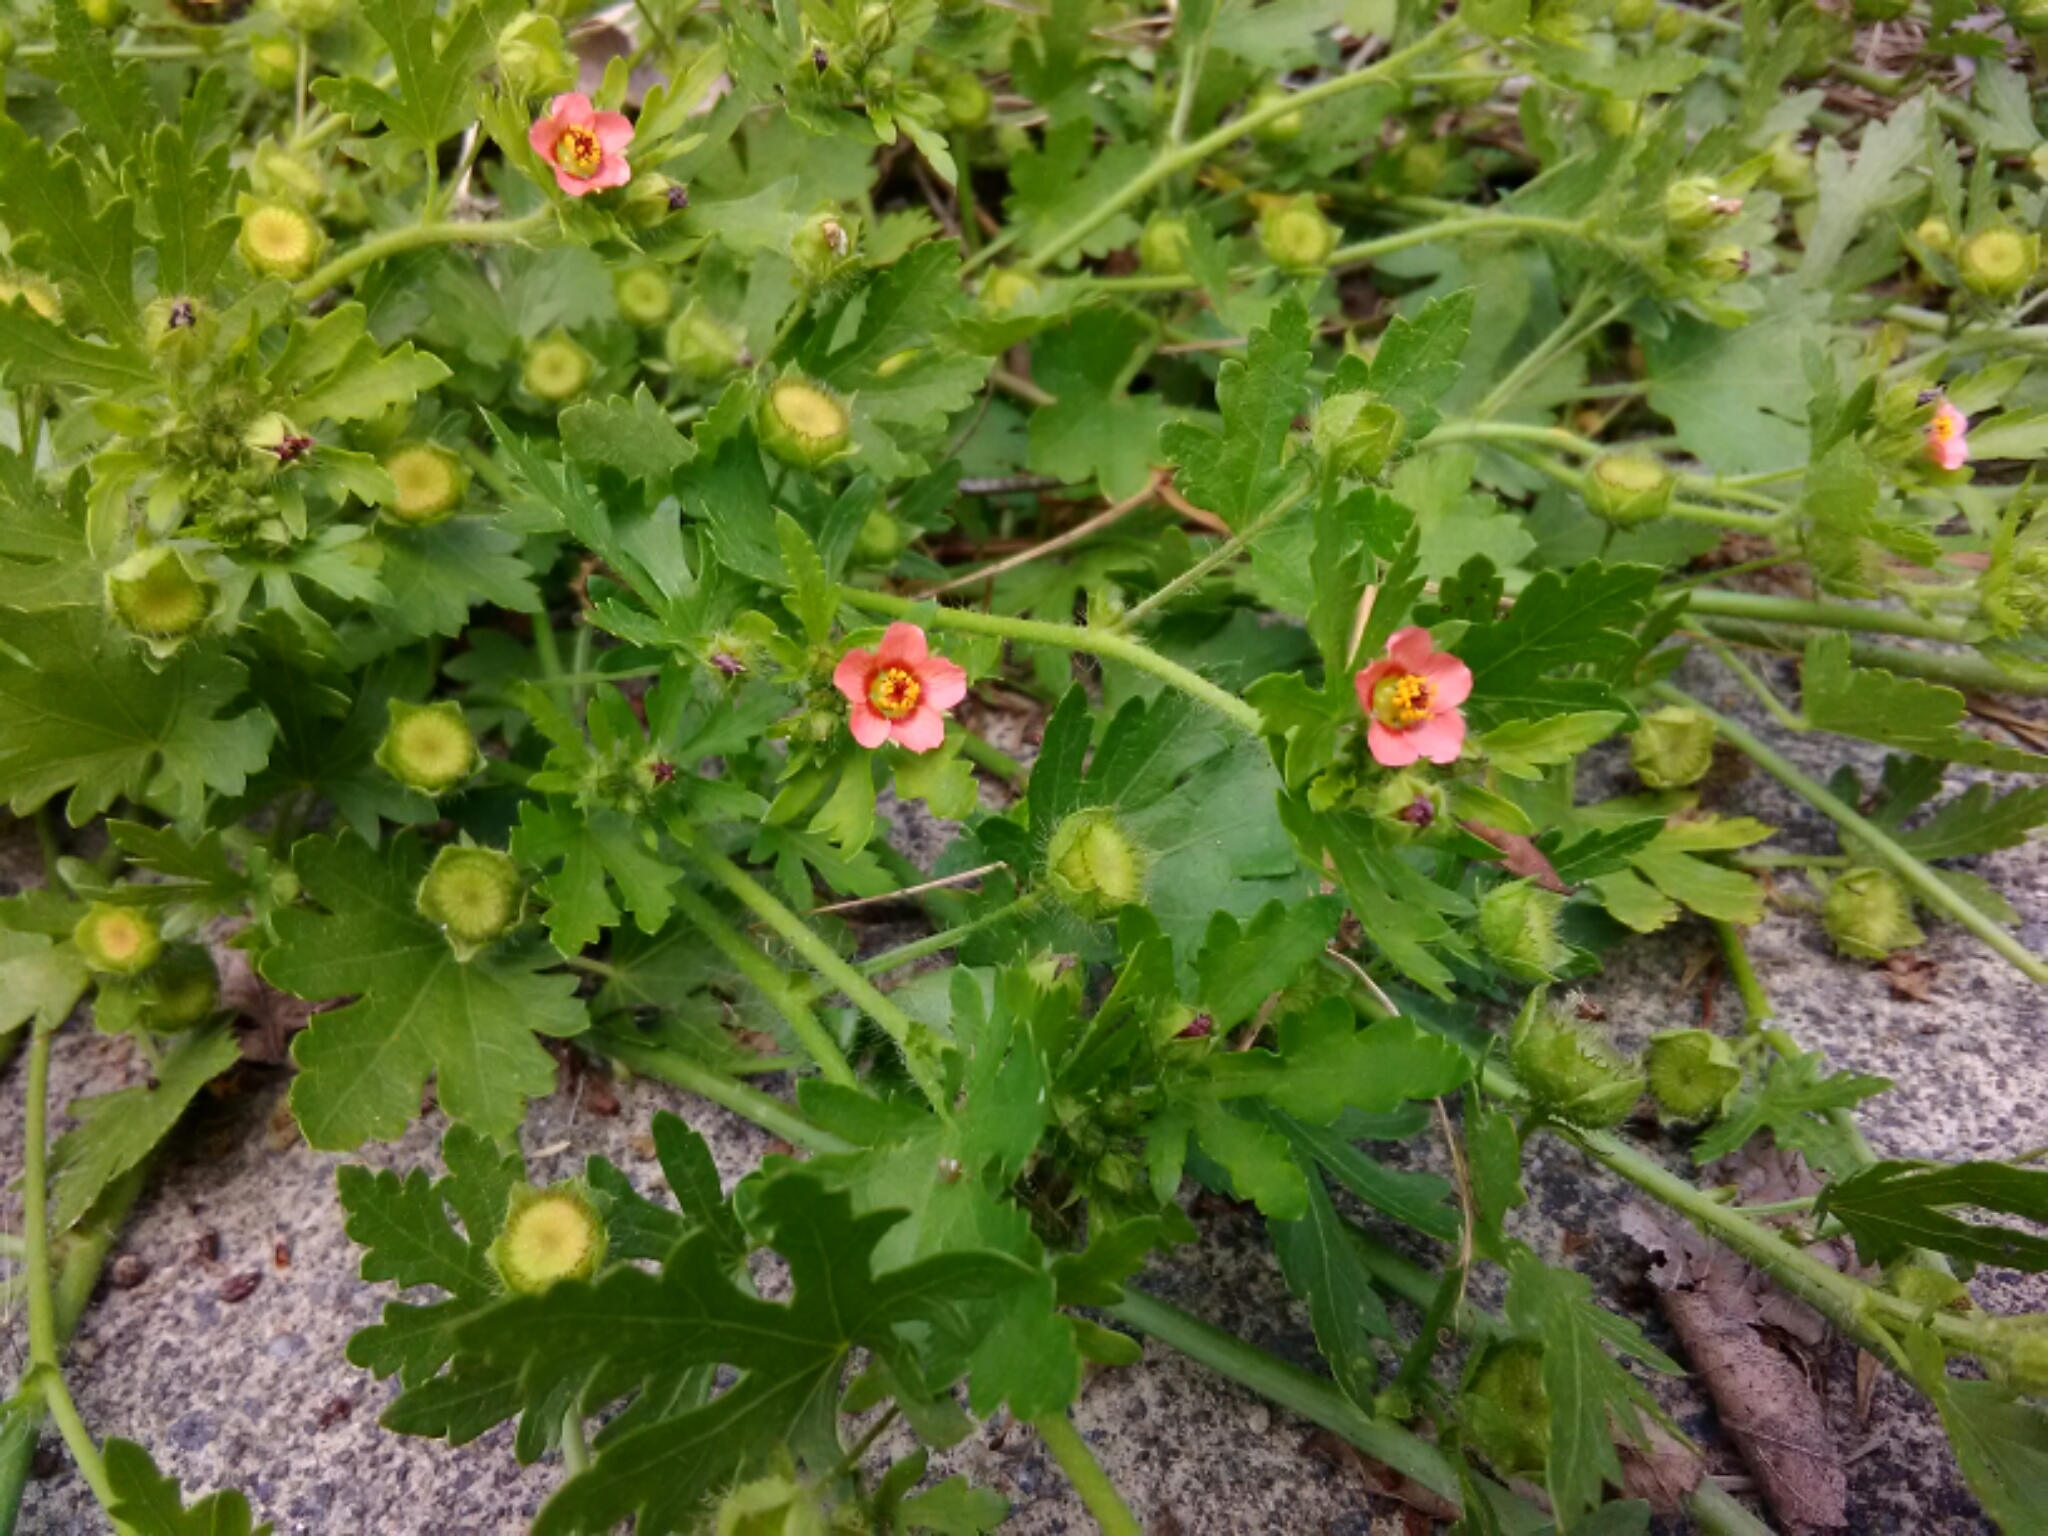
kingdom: Plantae
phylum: Tracheophyta
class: Magnoliopsida
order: Malvales
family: Malvaceae
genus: Modiola
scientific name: Modiola caroliniana
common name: Carolina bristlemallow
